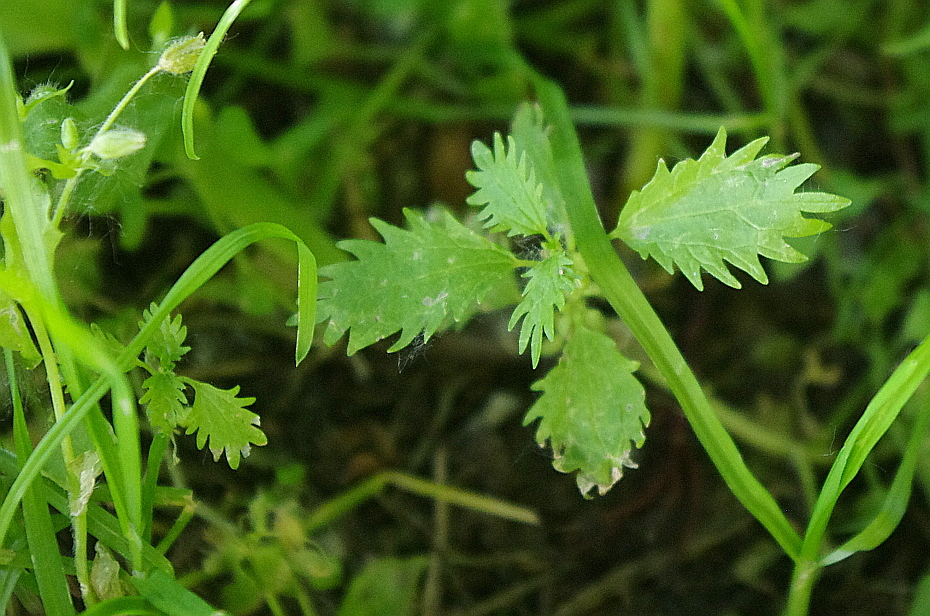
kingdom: Plantae
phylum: Tracheophyta
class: Magnoliopsida
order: Rosales
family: Urticaceae
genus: Urtica
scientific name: Urtica urens
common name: Dwarf nettle
